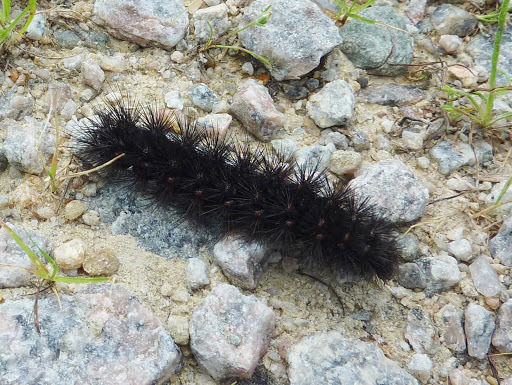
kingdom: Animalia
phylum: Arthropoda
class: Insecta
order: Lepidoptera
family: Erebidae
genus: Hypercompe
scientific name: Hypercompe scribonia
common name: Giant leopard moth
